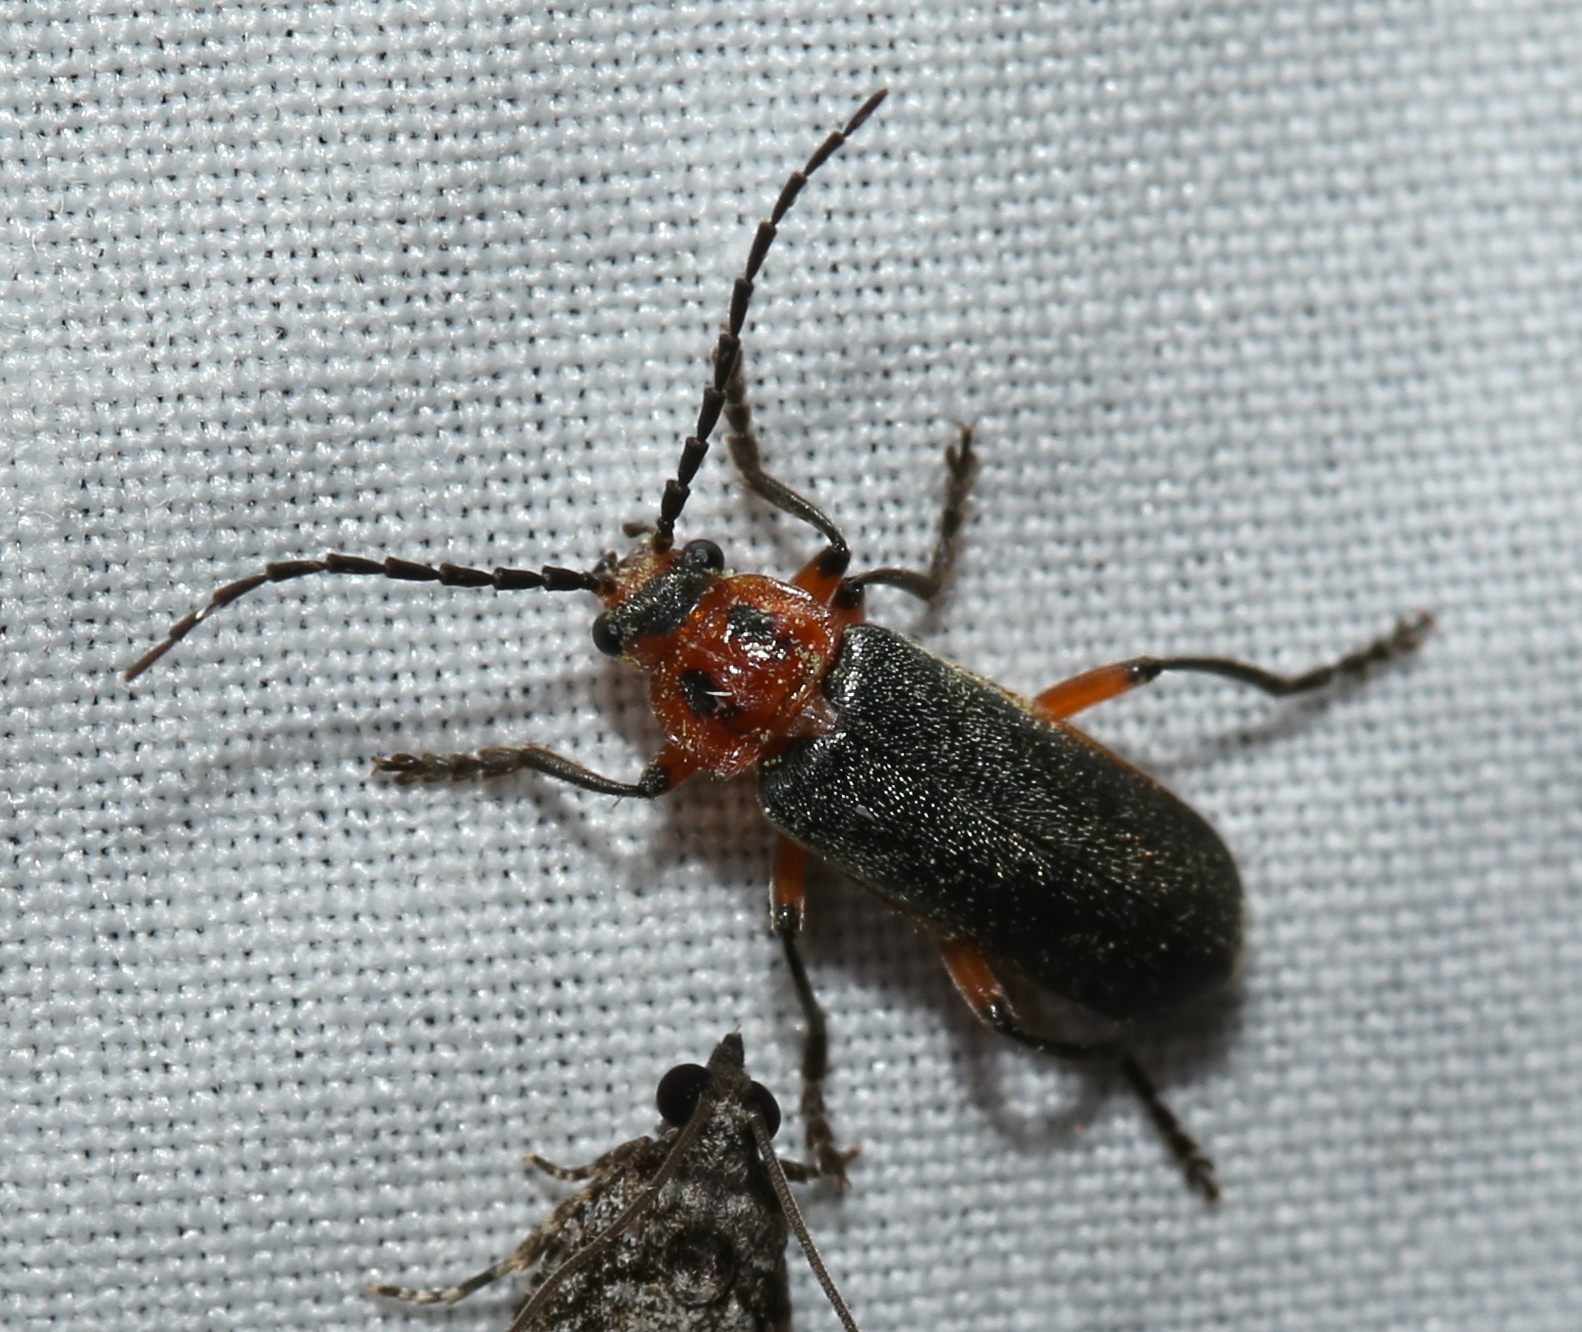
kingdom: Animalia
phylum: Arthropoda
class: Insecta
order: Coleoptera
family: Cantharidae
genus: Atalantycha
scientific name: Atalantycha bilineata
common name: Two-lined leatherwing
